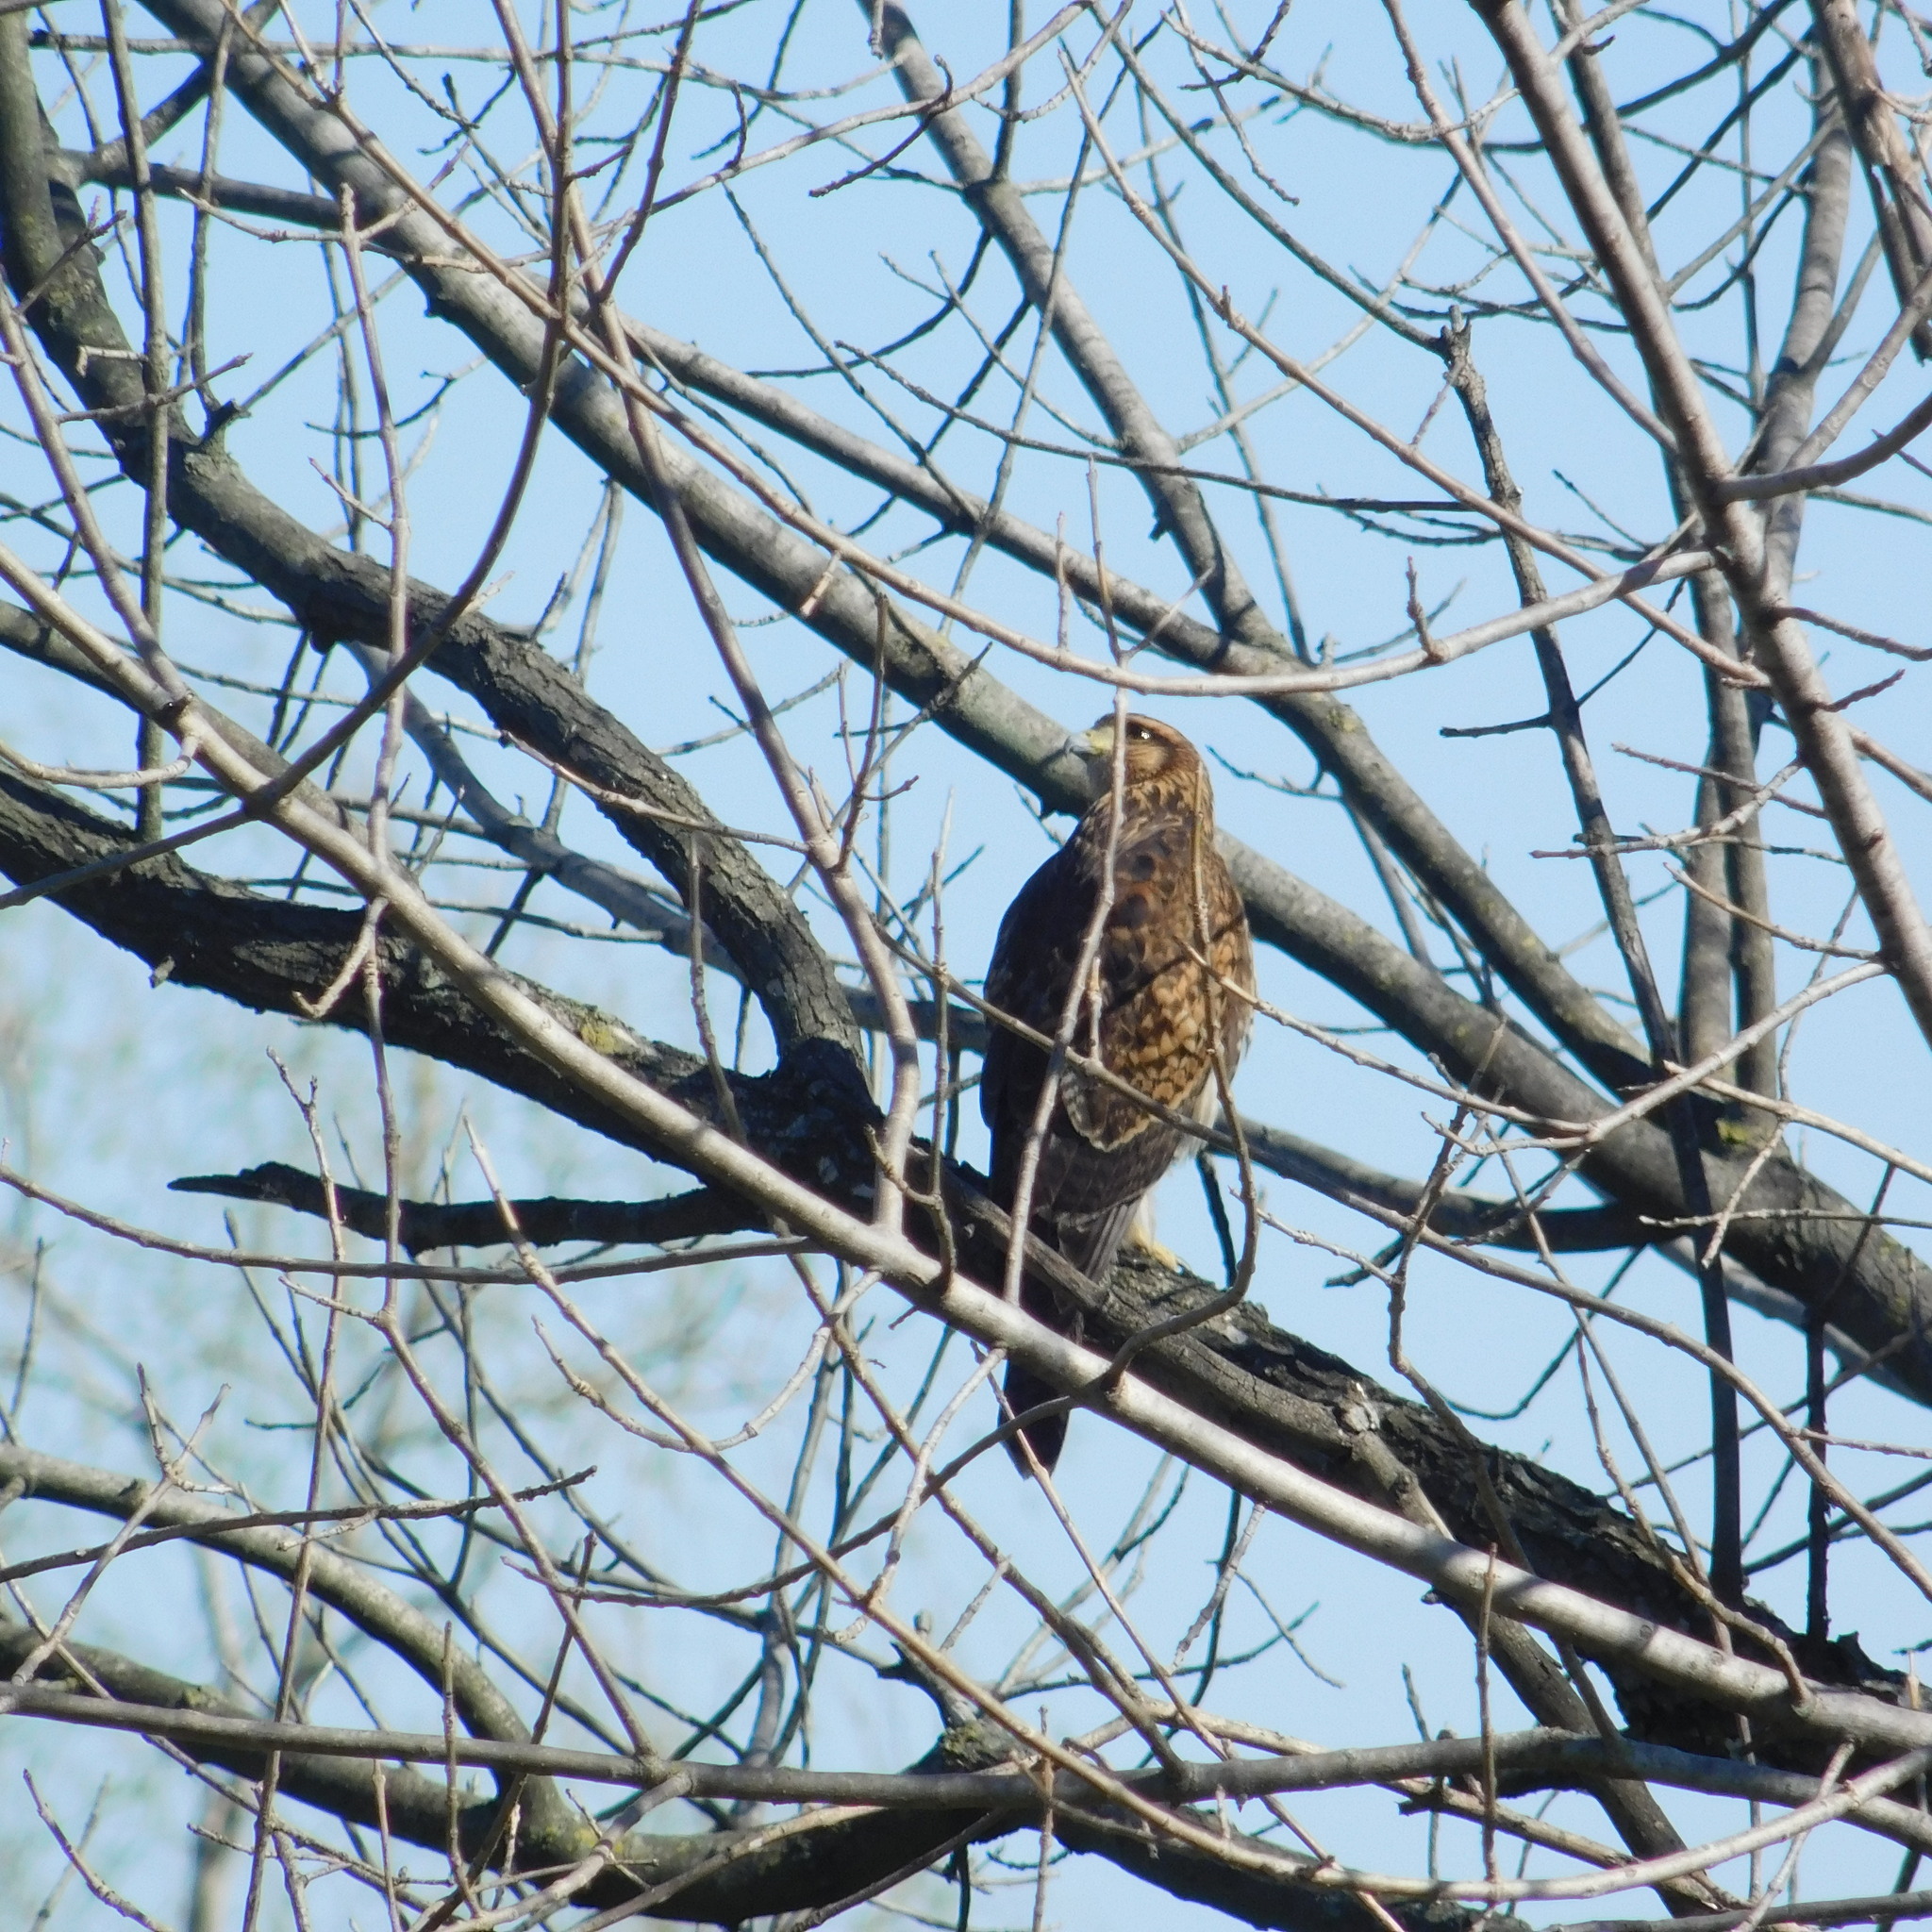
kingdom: Animalia
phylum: Chordata
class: Aves
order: Accipitriformes
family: Accipitridae
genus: Parabuteo
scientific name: Parabuteo unicinctus
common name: Harris's hawk
